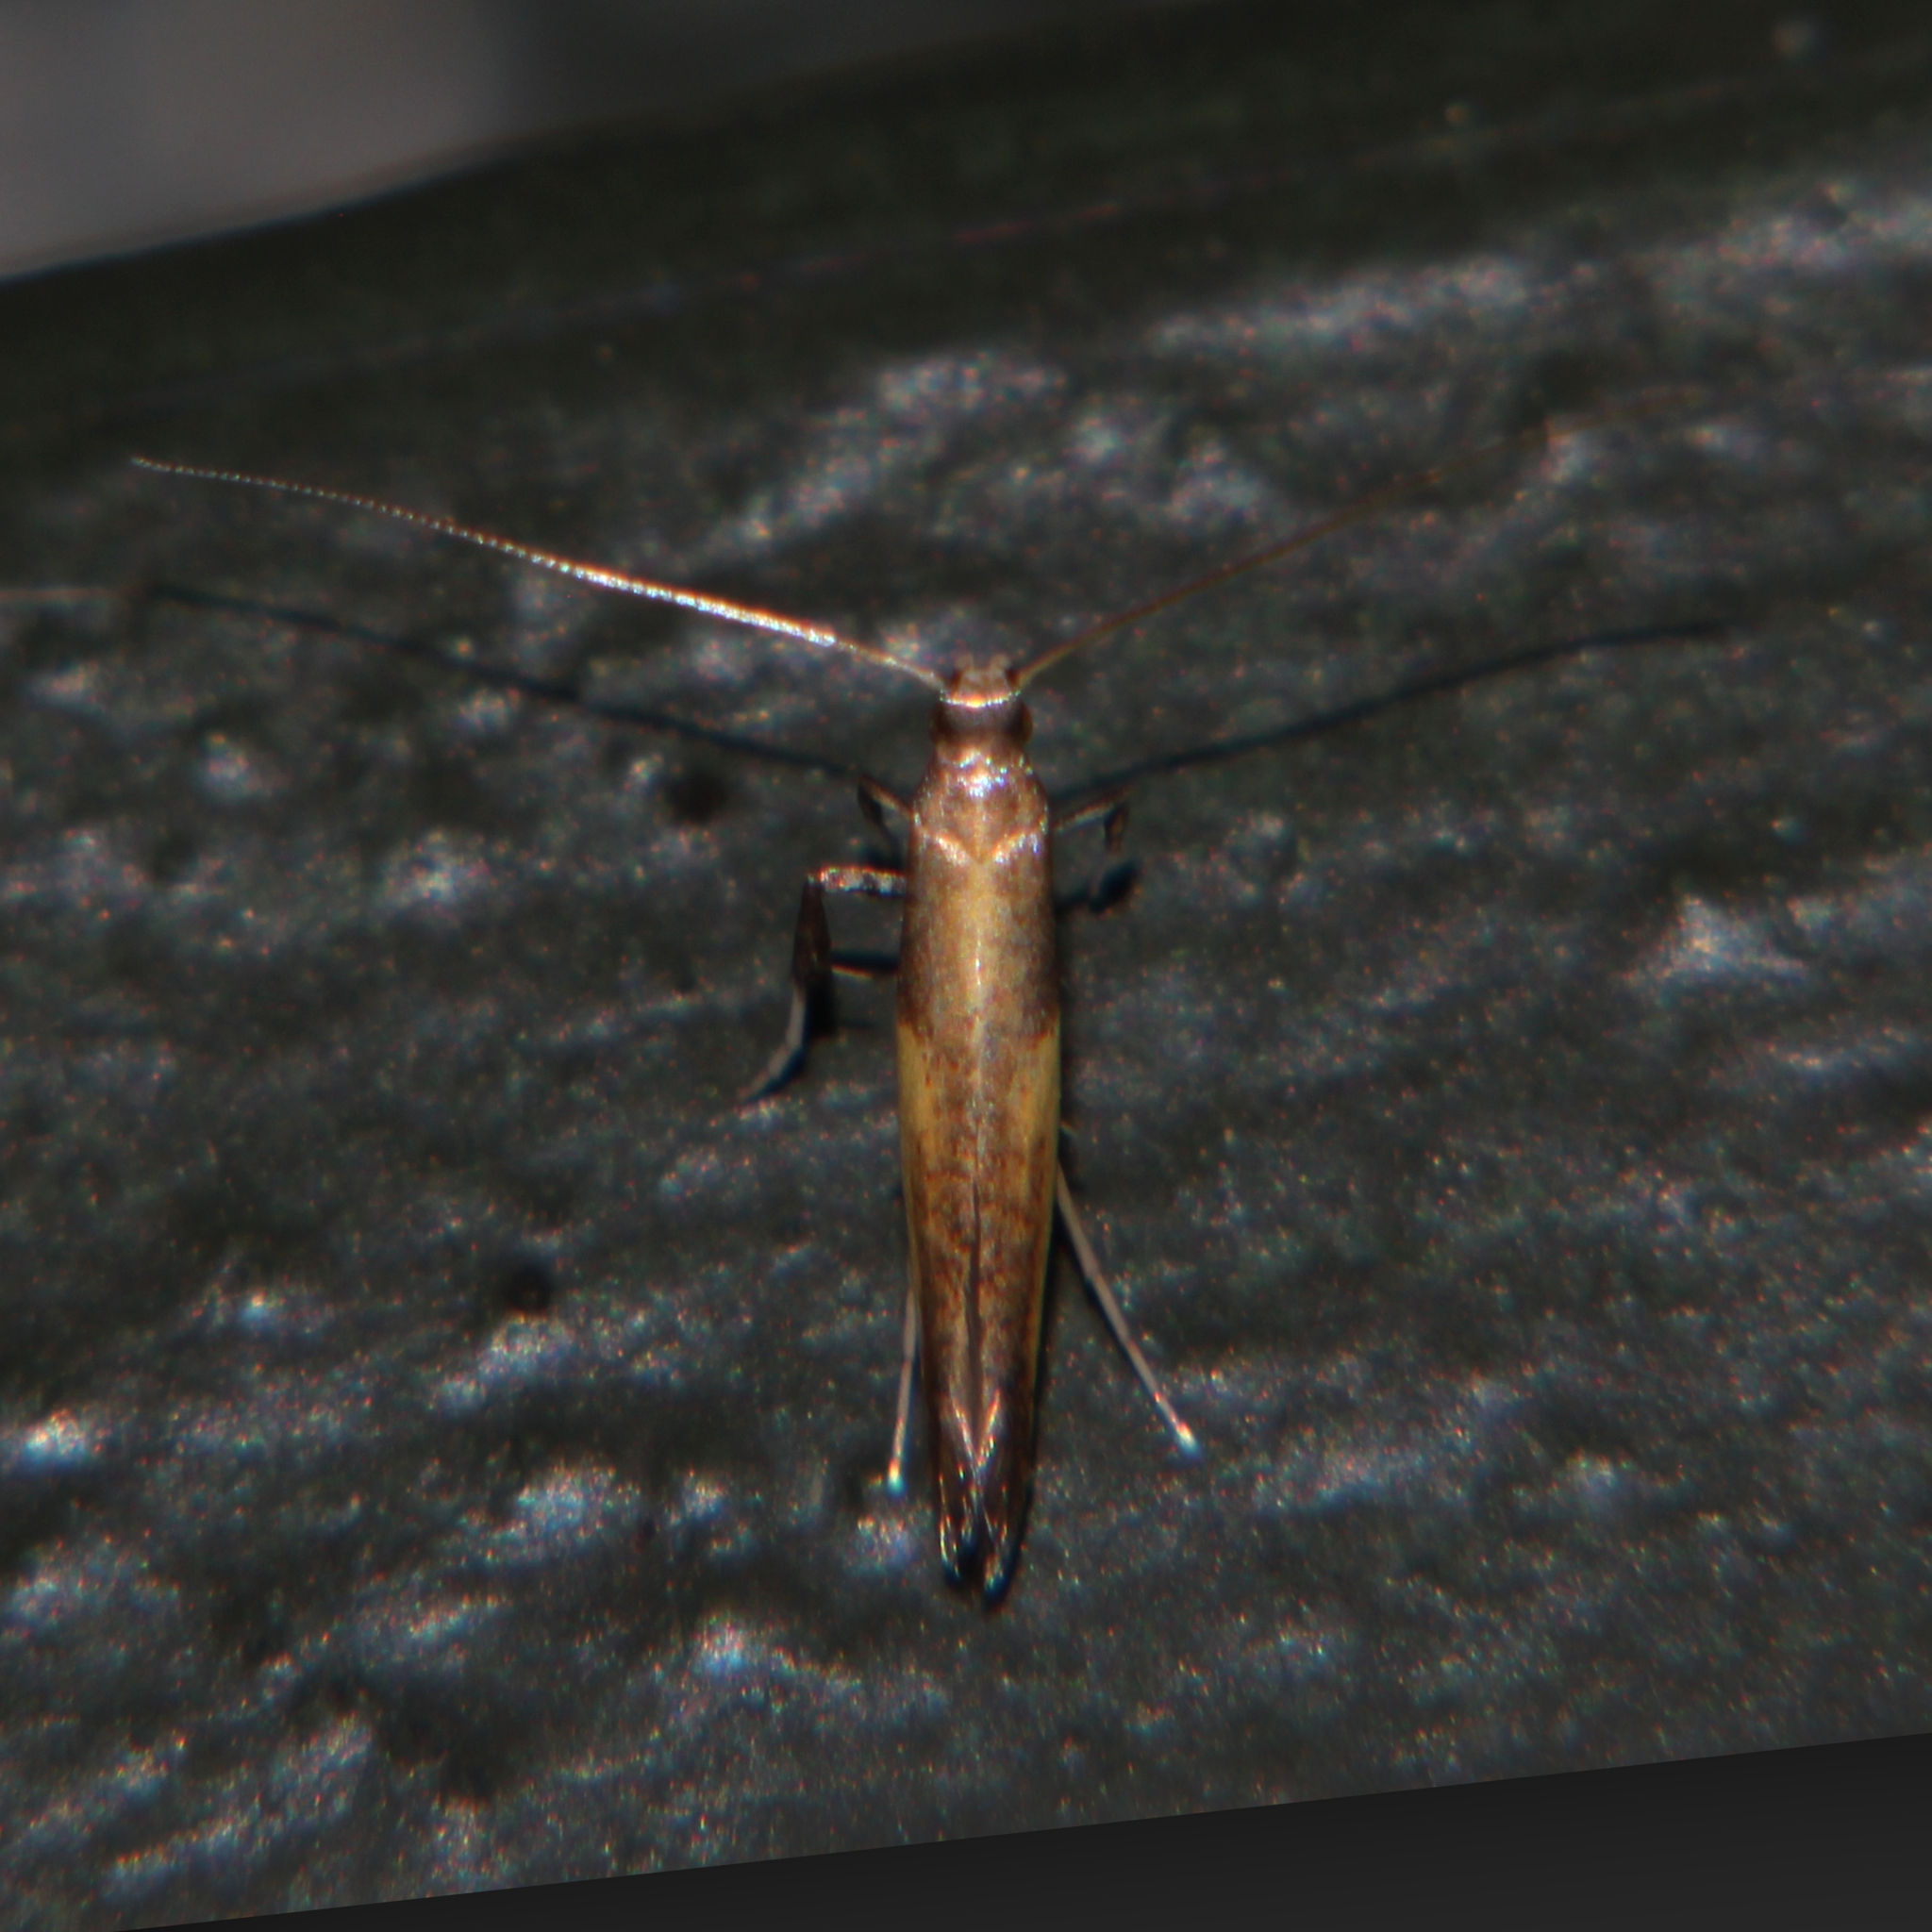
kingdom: Animalia
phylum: Arthropoda
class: Insecta
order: Lepidoptera
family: Gracillariidae
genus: Caloptilia
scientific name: Caloptilia azaleella
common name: Azalea leafminer
